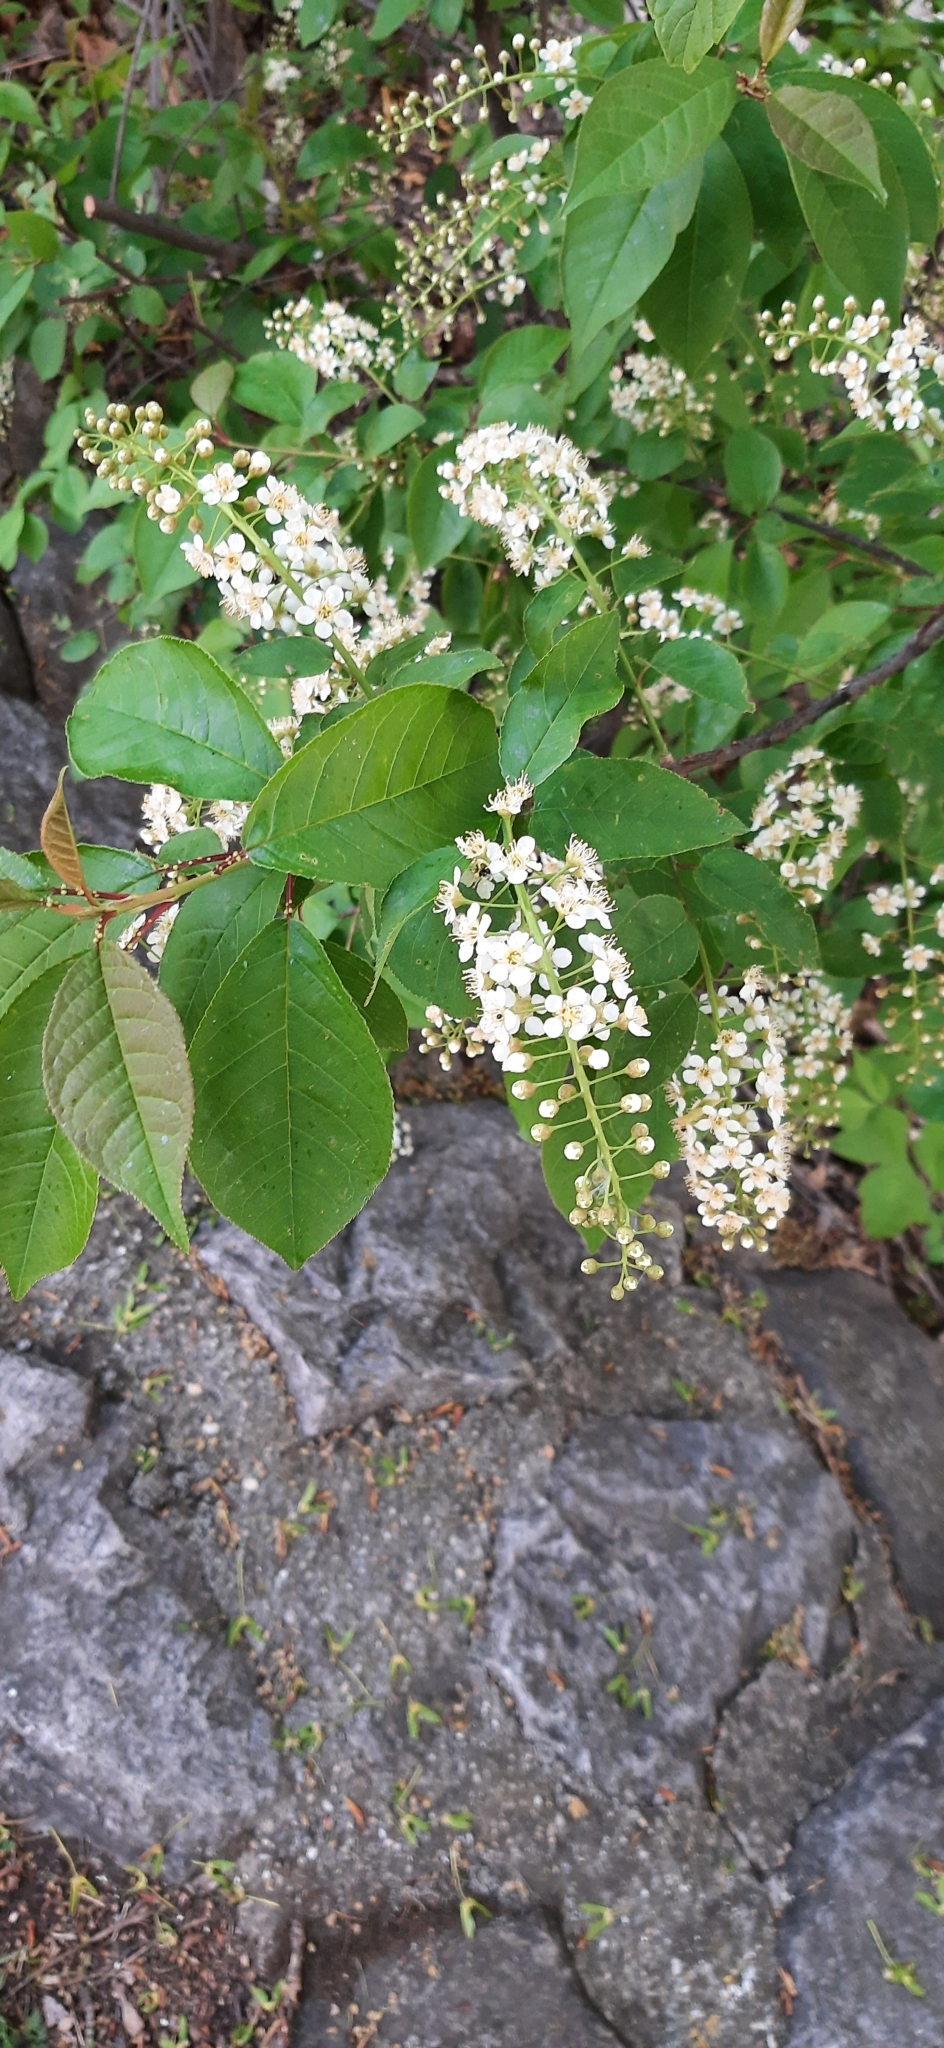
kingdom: Plantae
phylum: Tracheophyta
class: Magnoliopsida
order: Rosales
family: Rosaceae
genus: Prunus
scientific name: Prunus padus
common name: Bird cherry
